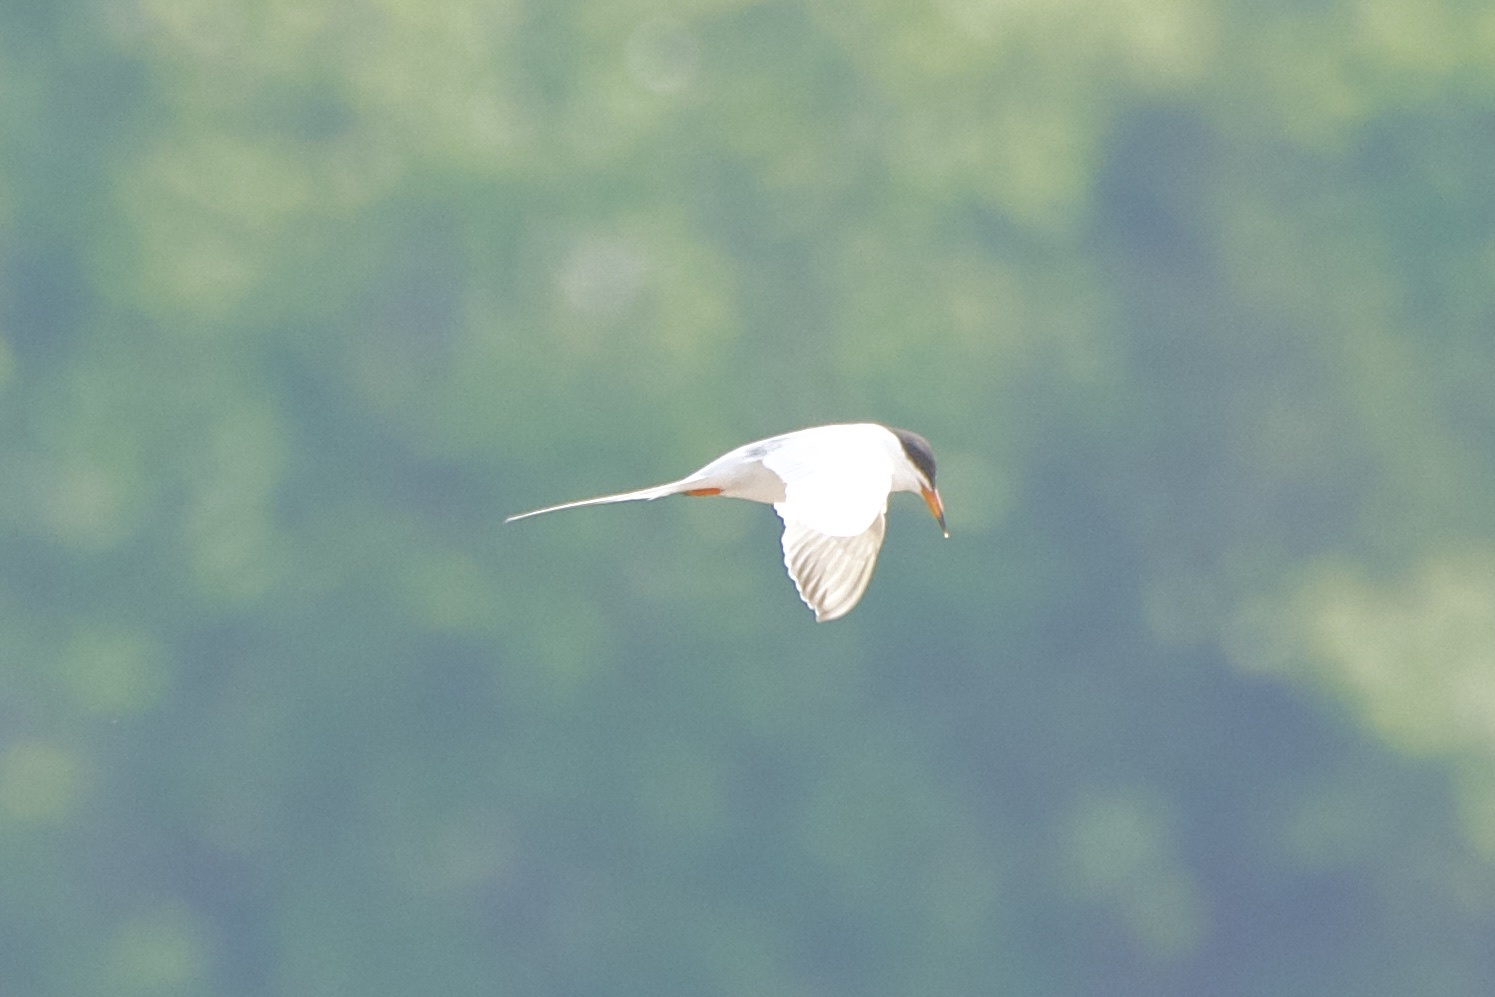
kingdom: Animalia
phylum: Chordata
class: Aves
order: Charadriiformes
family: Laridae
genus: Sterna
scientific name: Sterna forsteri
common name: Forster's tern
